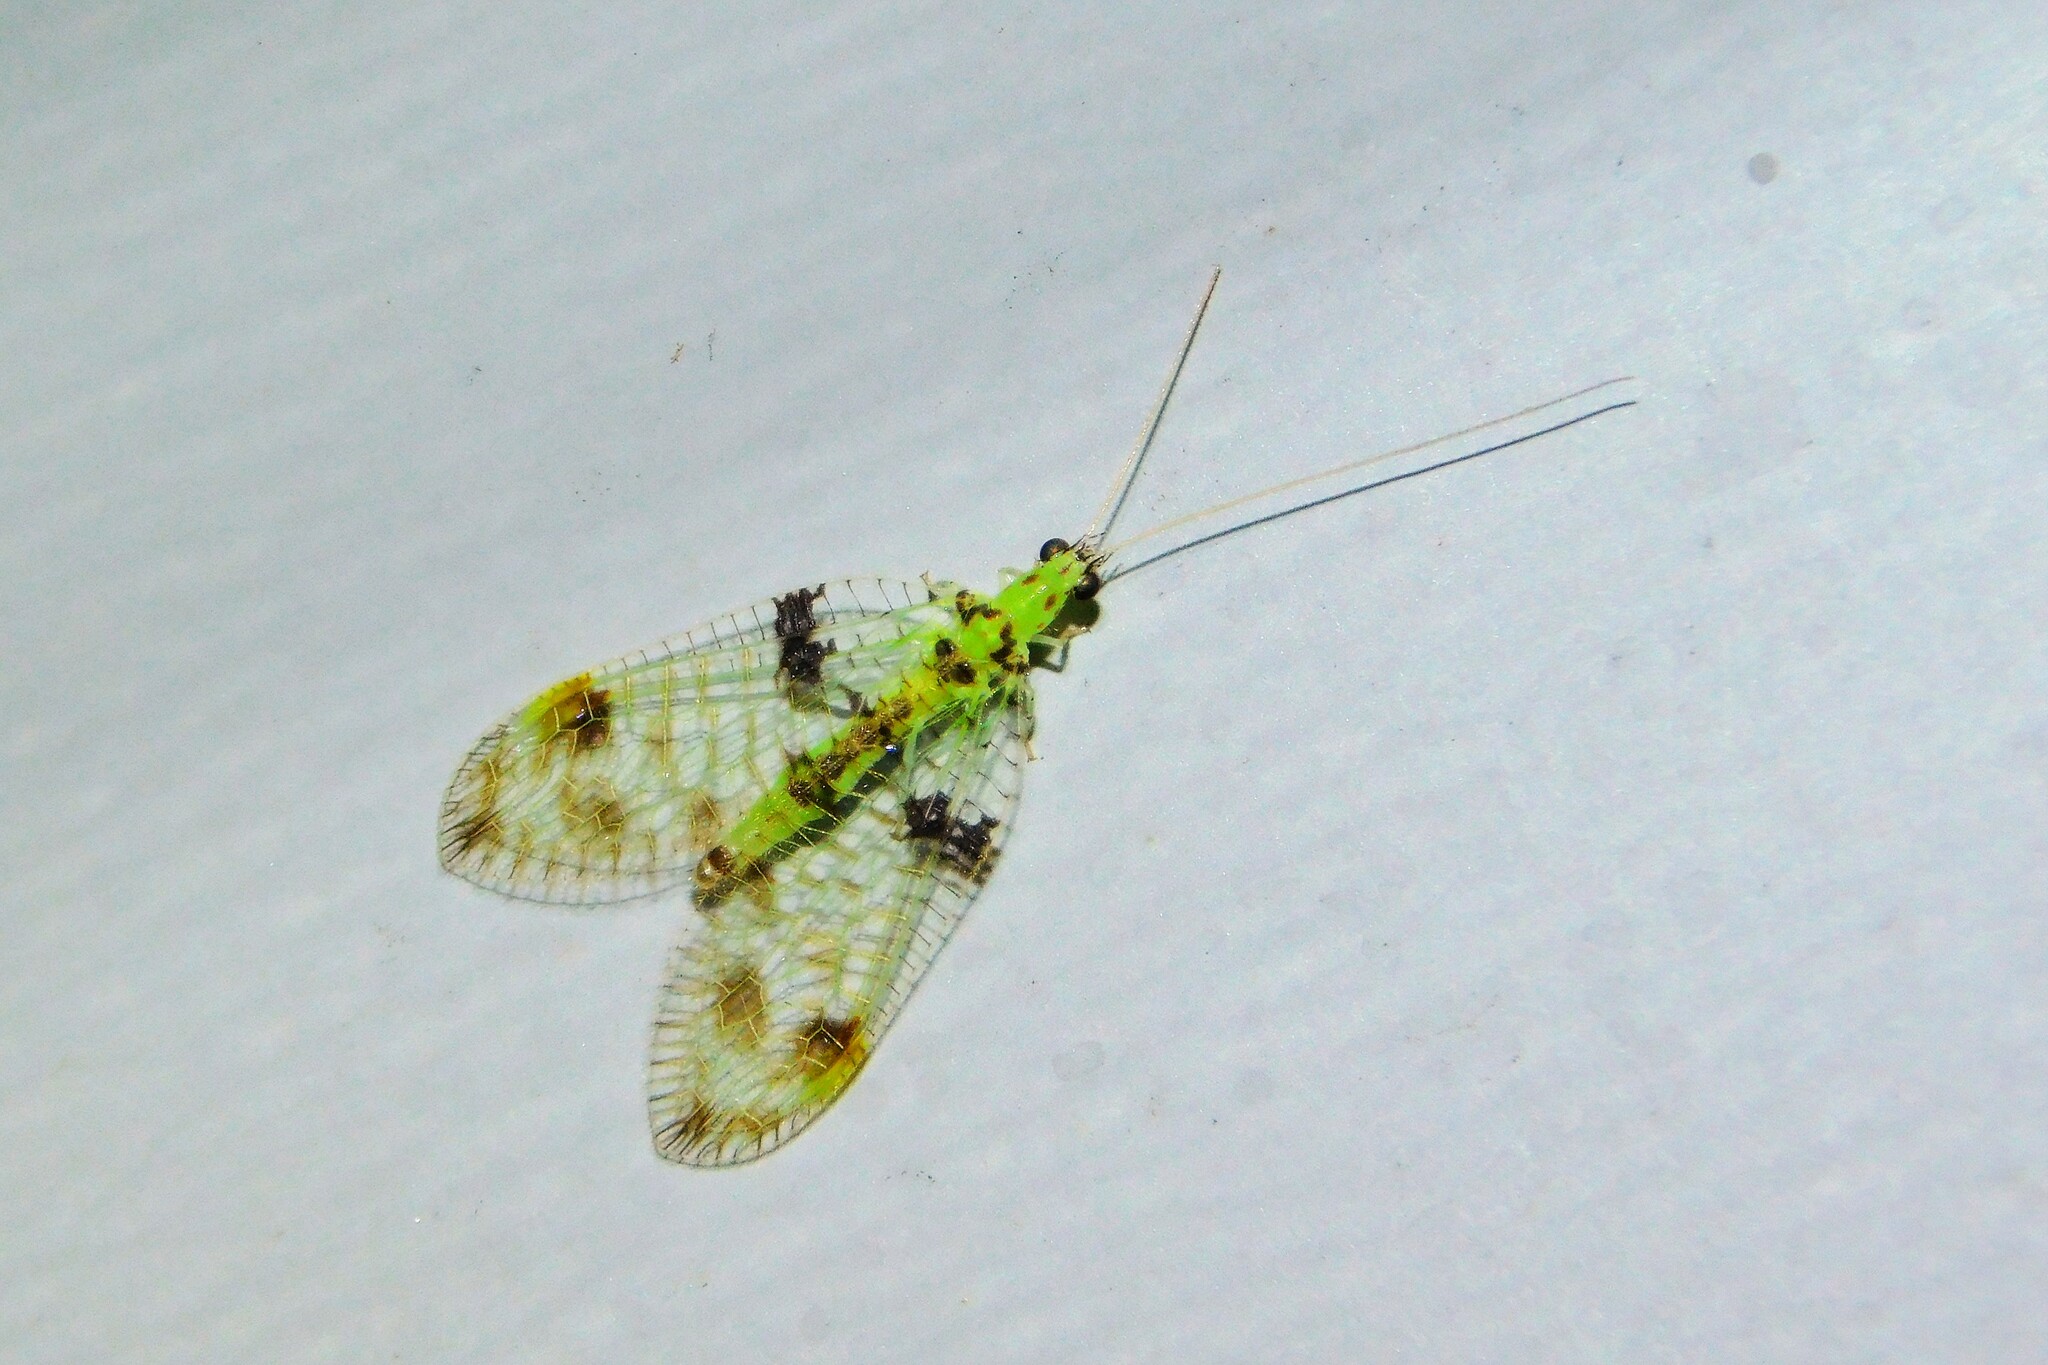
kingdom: Animalia
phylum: Arthropoda
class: Insecta
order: Neuroptera
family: Chrysopidae
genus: Glenochrysa
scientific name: Glenochrysa principissa
